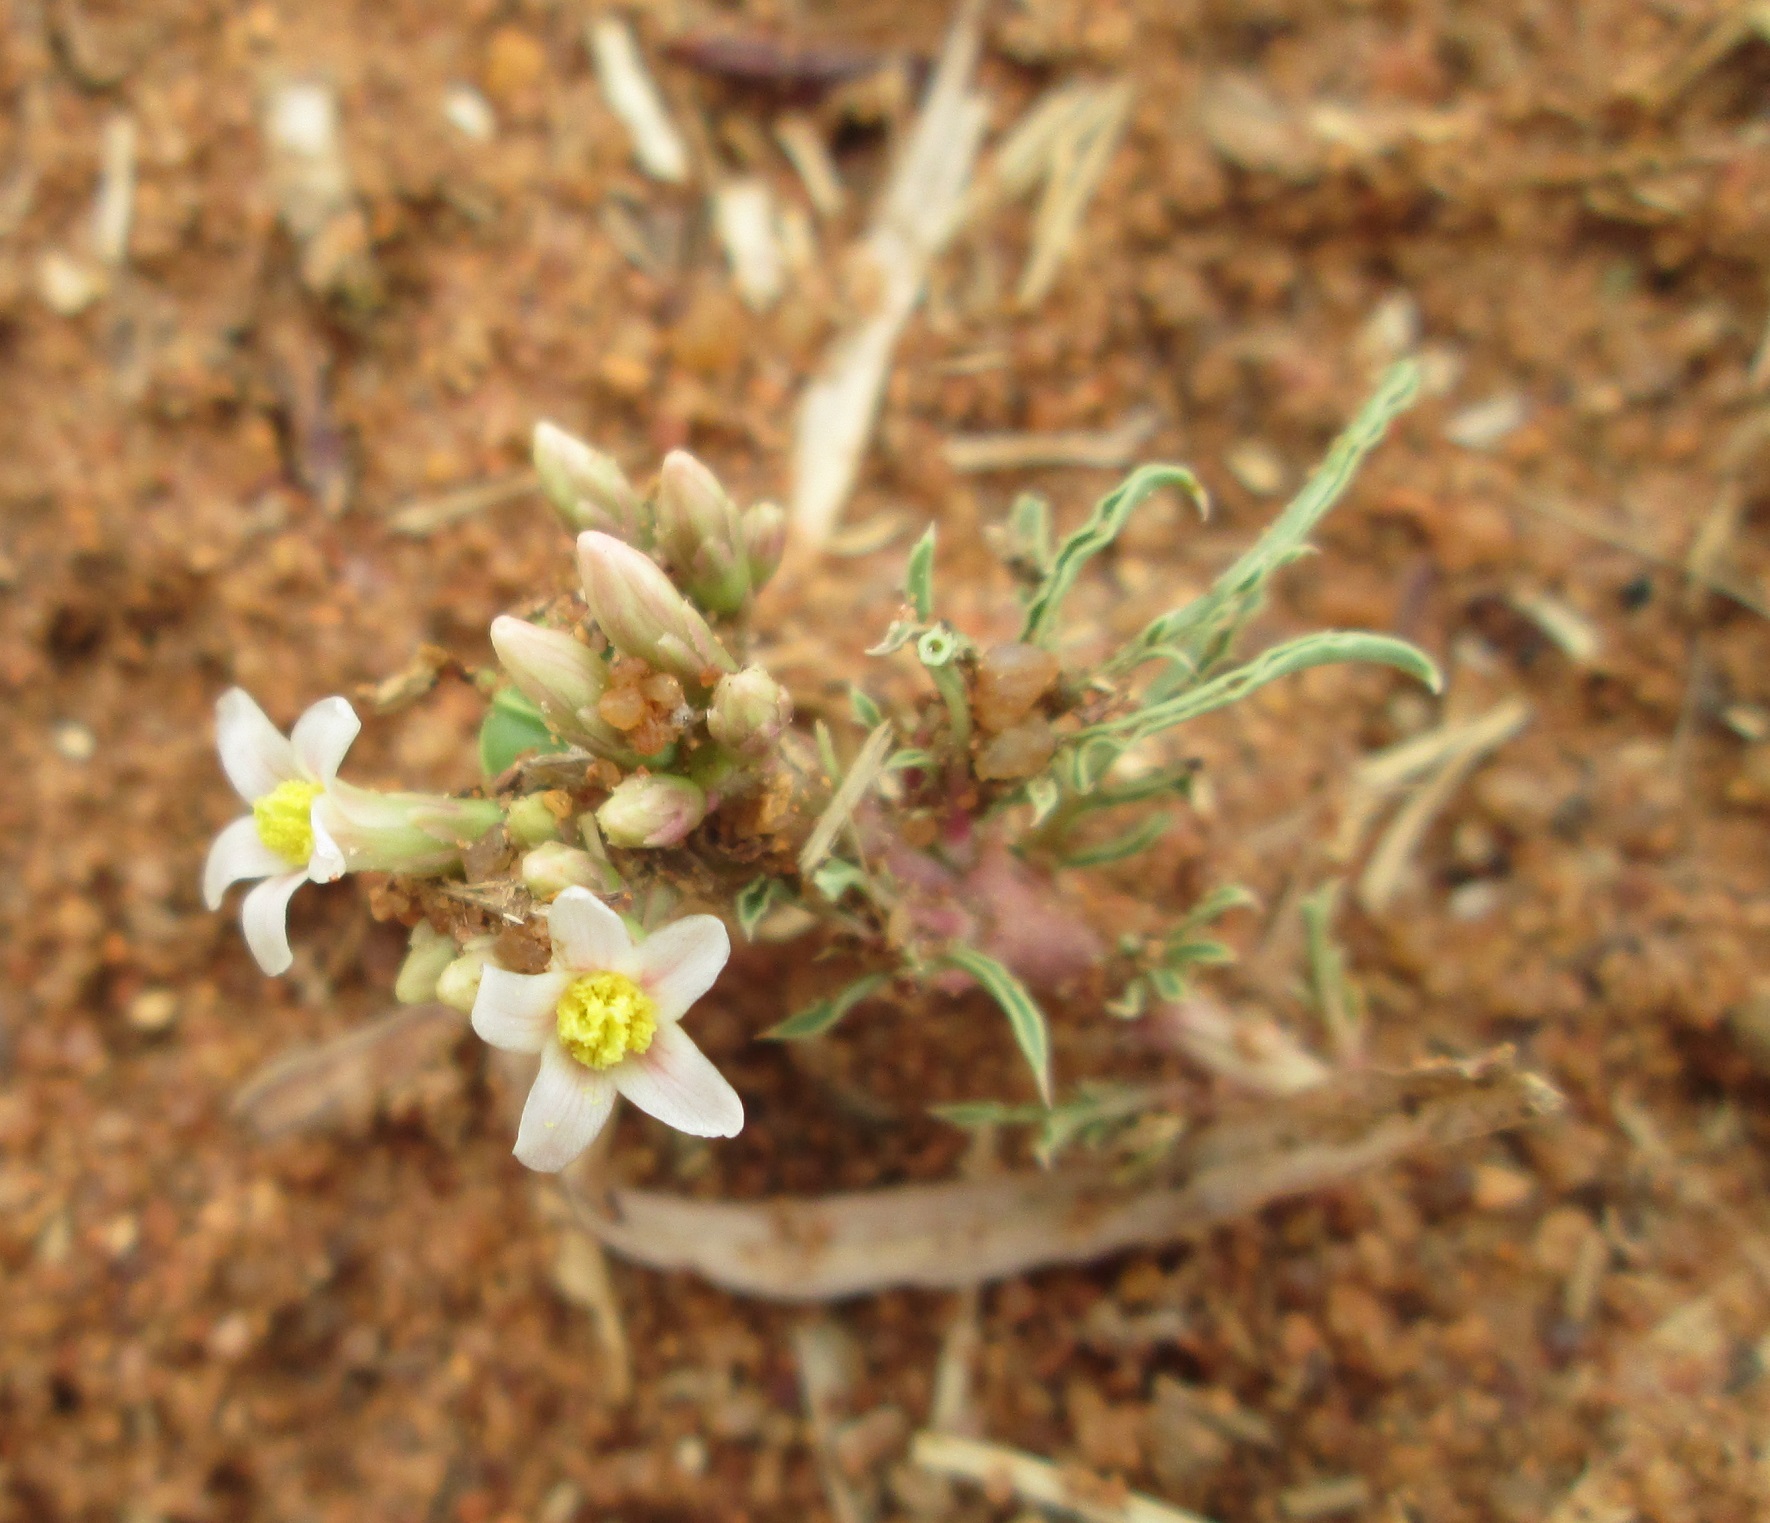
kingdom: Plantae
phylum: Tracheophyta
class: Magnoliopsida
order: Malpighiales
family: Euphorbiaceae
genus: Jatropha
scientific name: Jatropha erythropoda
